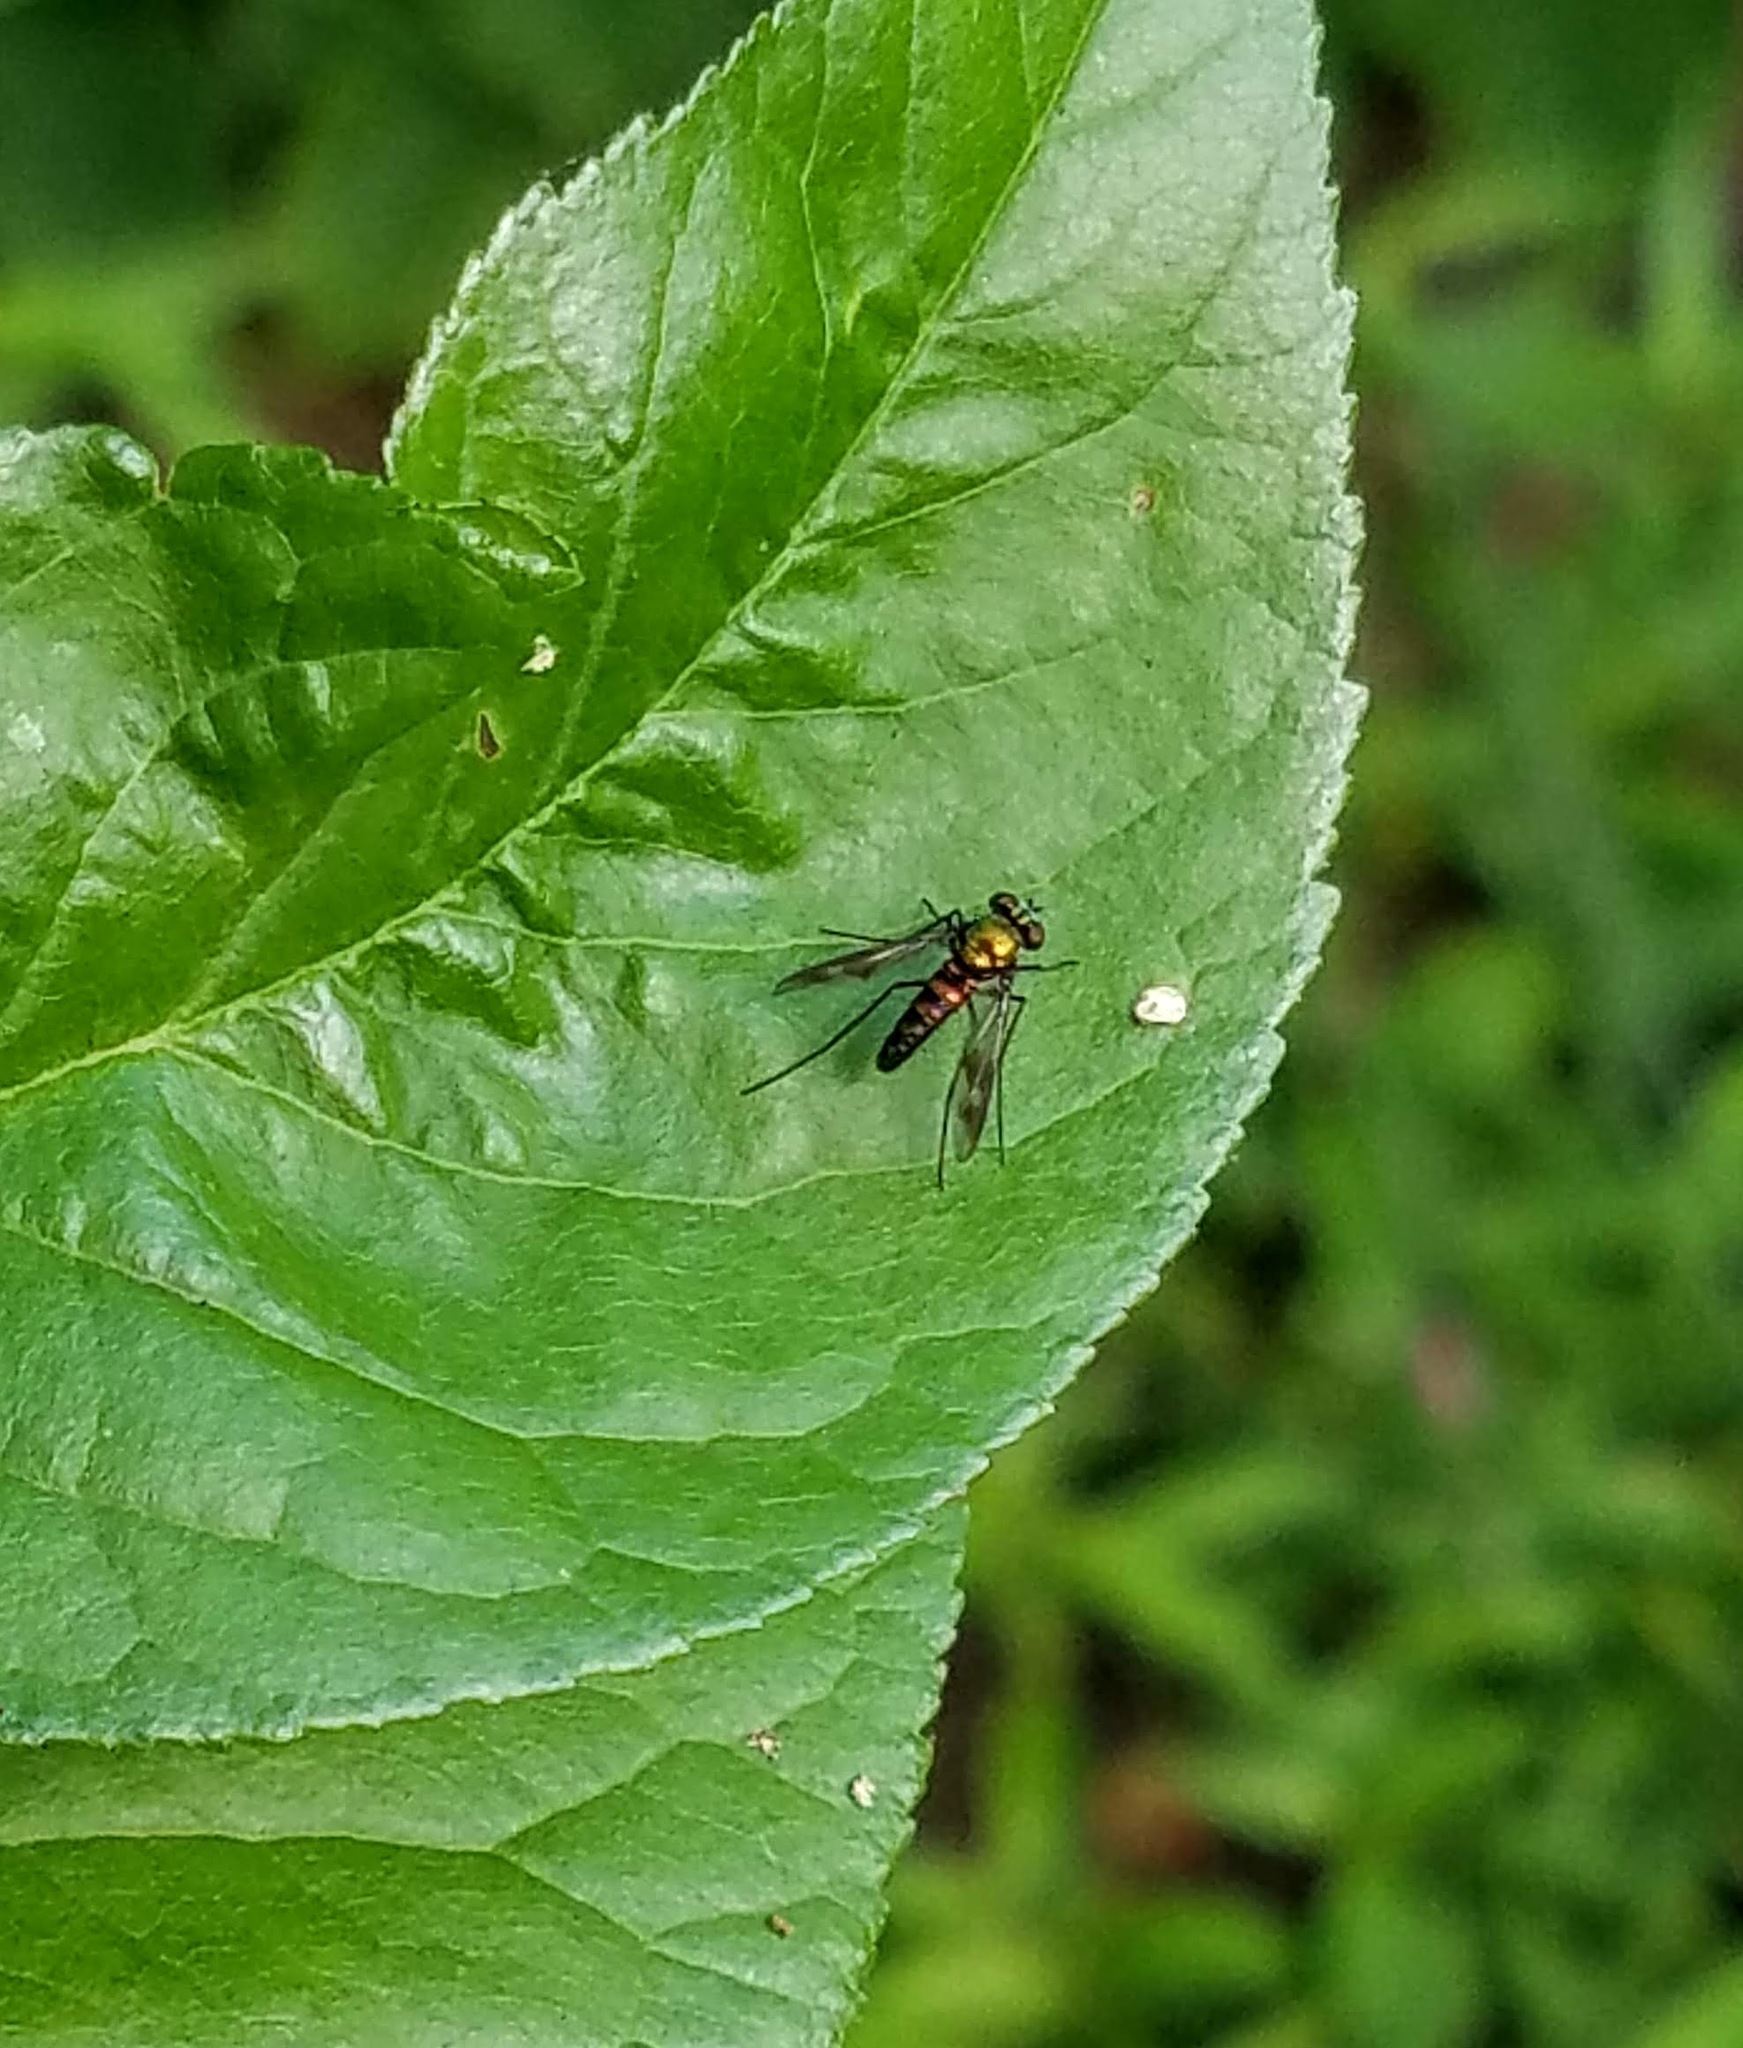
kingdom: Animalia
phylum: Arthropoda
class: Insecta
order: Diptera
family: Dolichopodidae
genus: Condylostylus
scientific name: Condylostylus patibulatus
